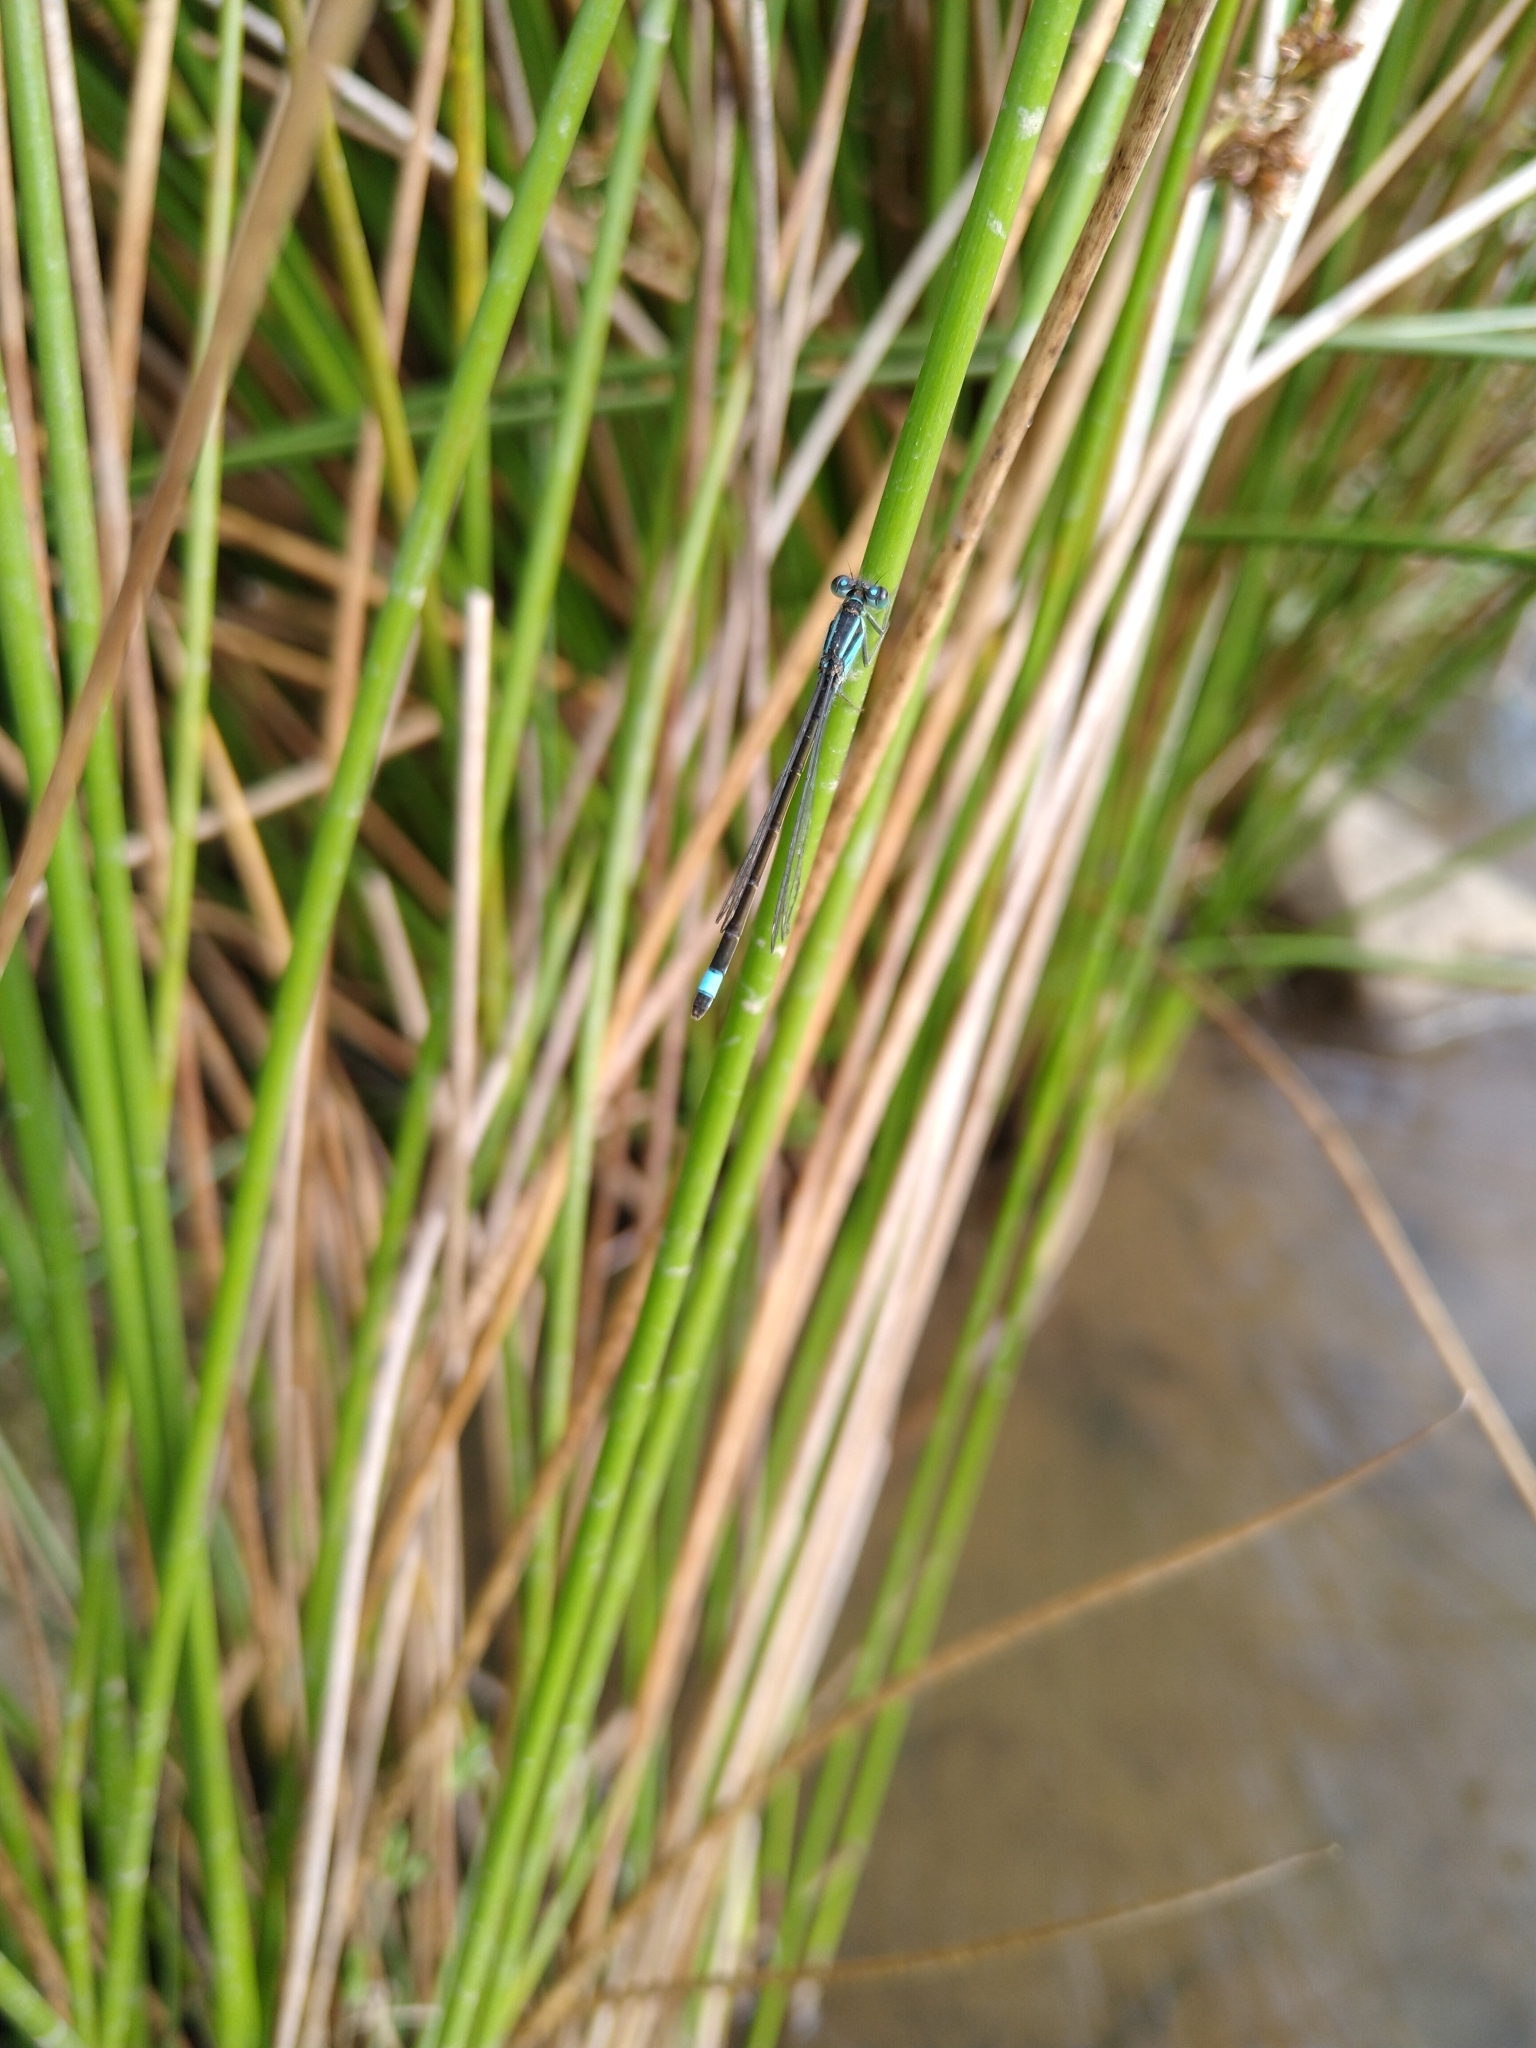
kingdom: Animalia
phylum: Arthropoda
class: Insecta
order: Odonata
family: Coenagrionidae
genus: Ischnura
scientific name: Ischnura elegans
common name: Blue-tailed damselfly
